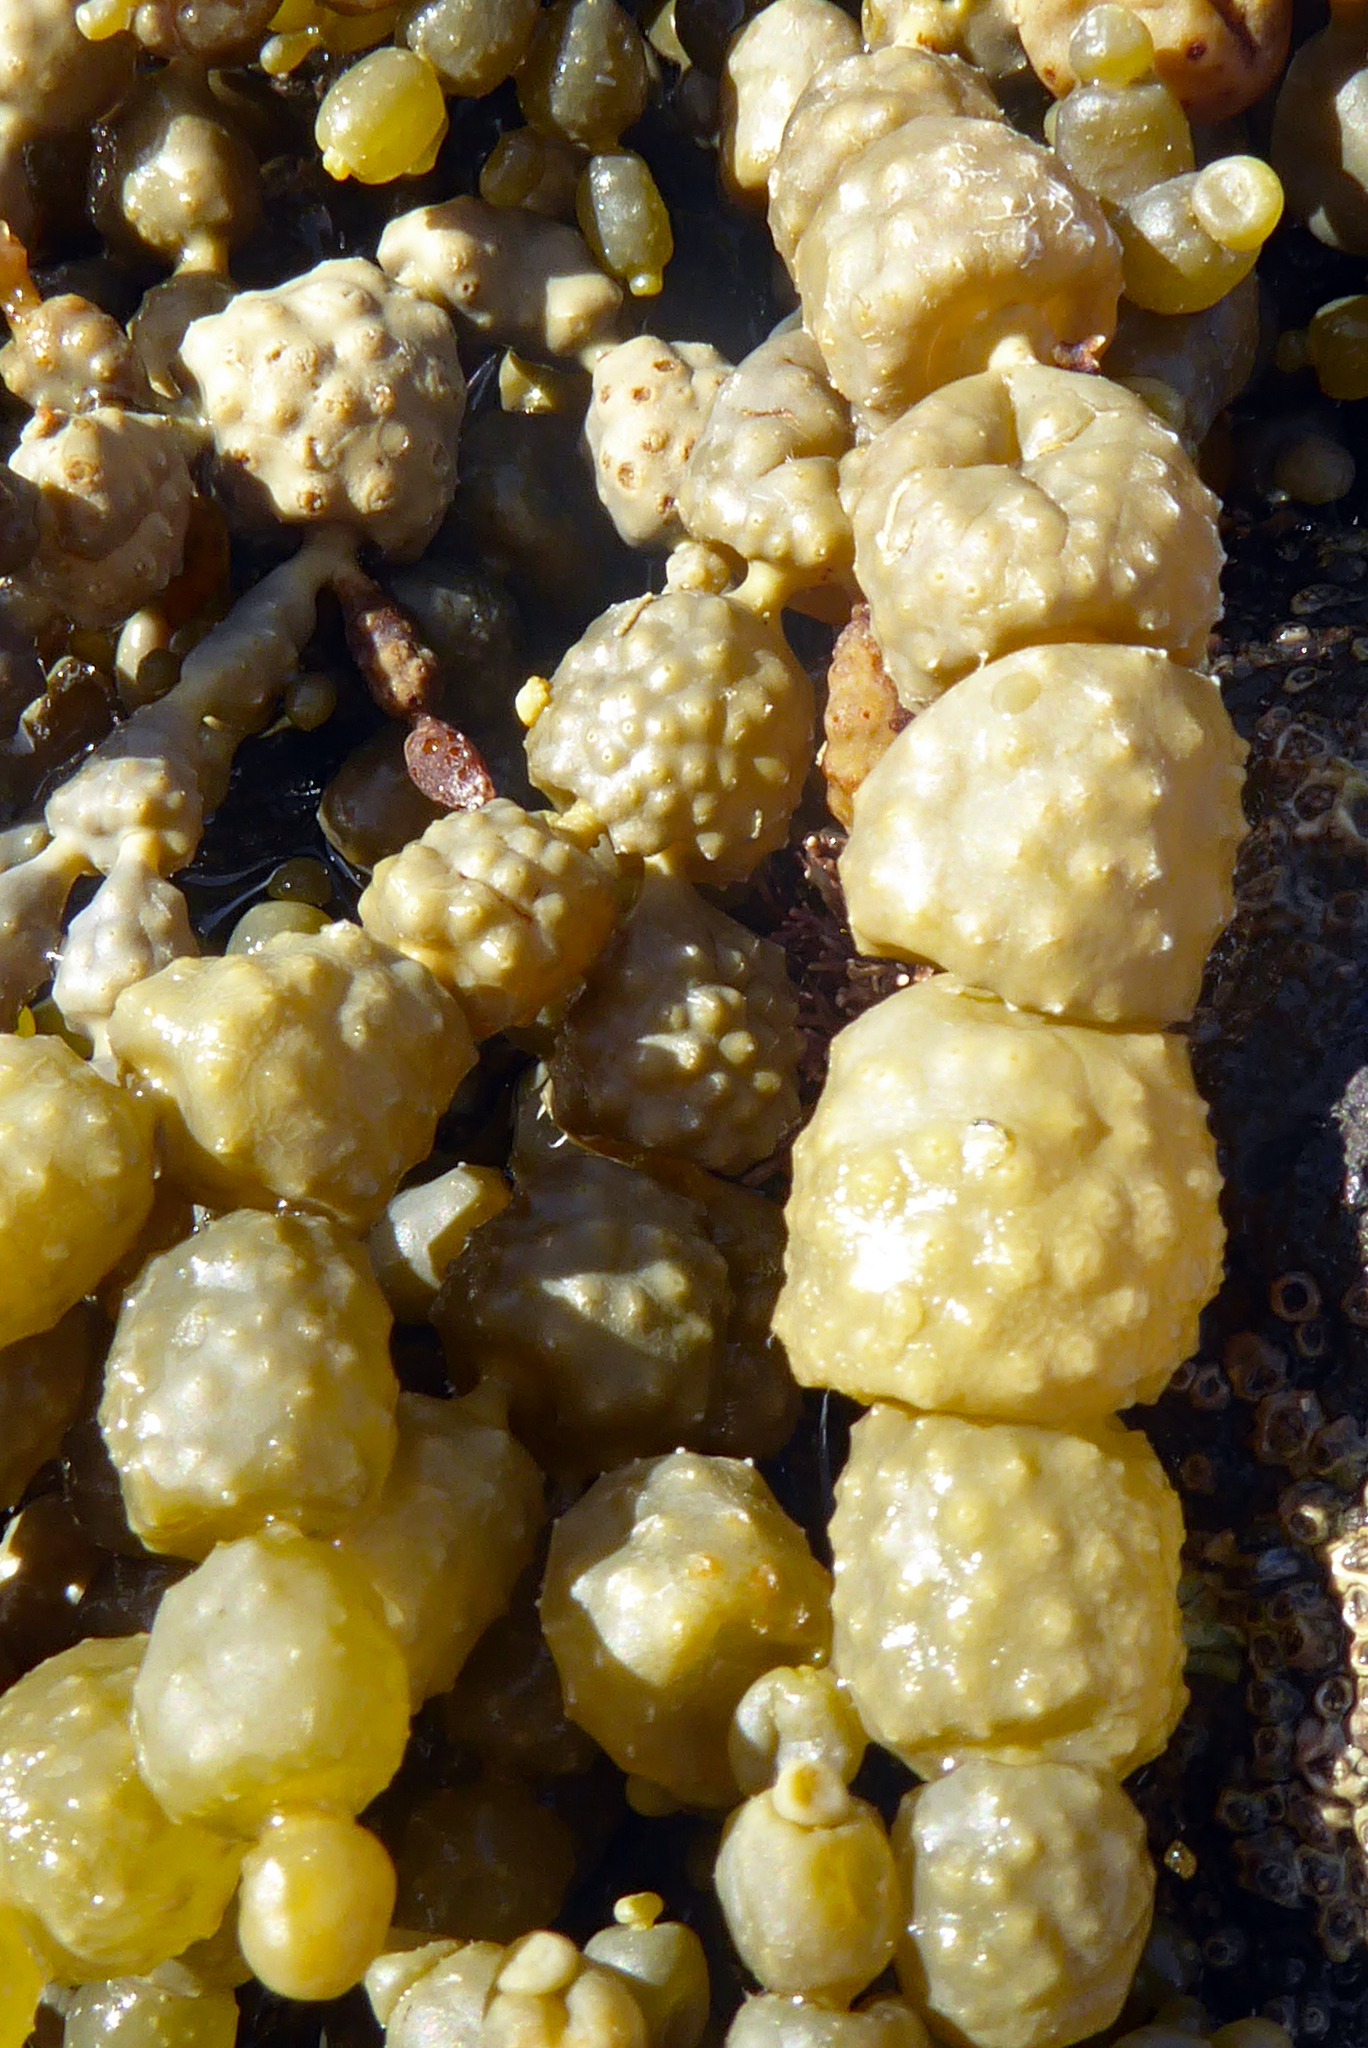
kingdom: Chromista
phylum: Ochrophyta
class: Phaeophyceae
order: Fucales
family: Hormosiraceae
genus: Hormosira
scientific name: Hormosira banksii
